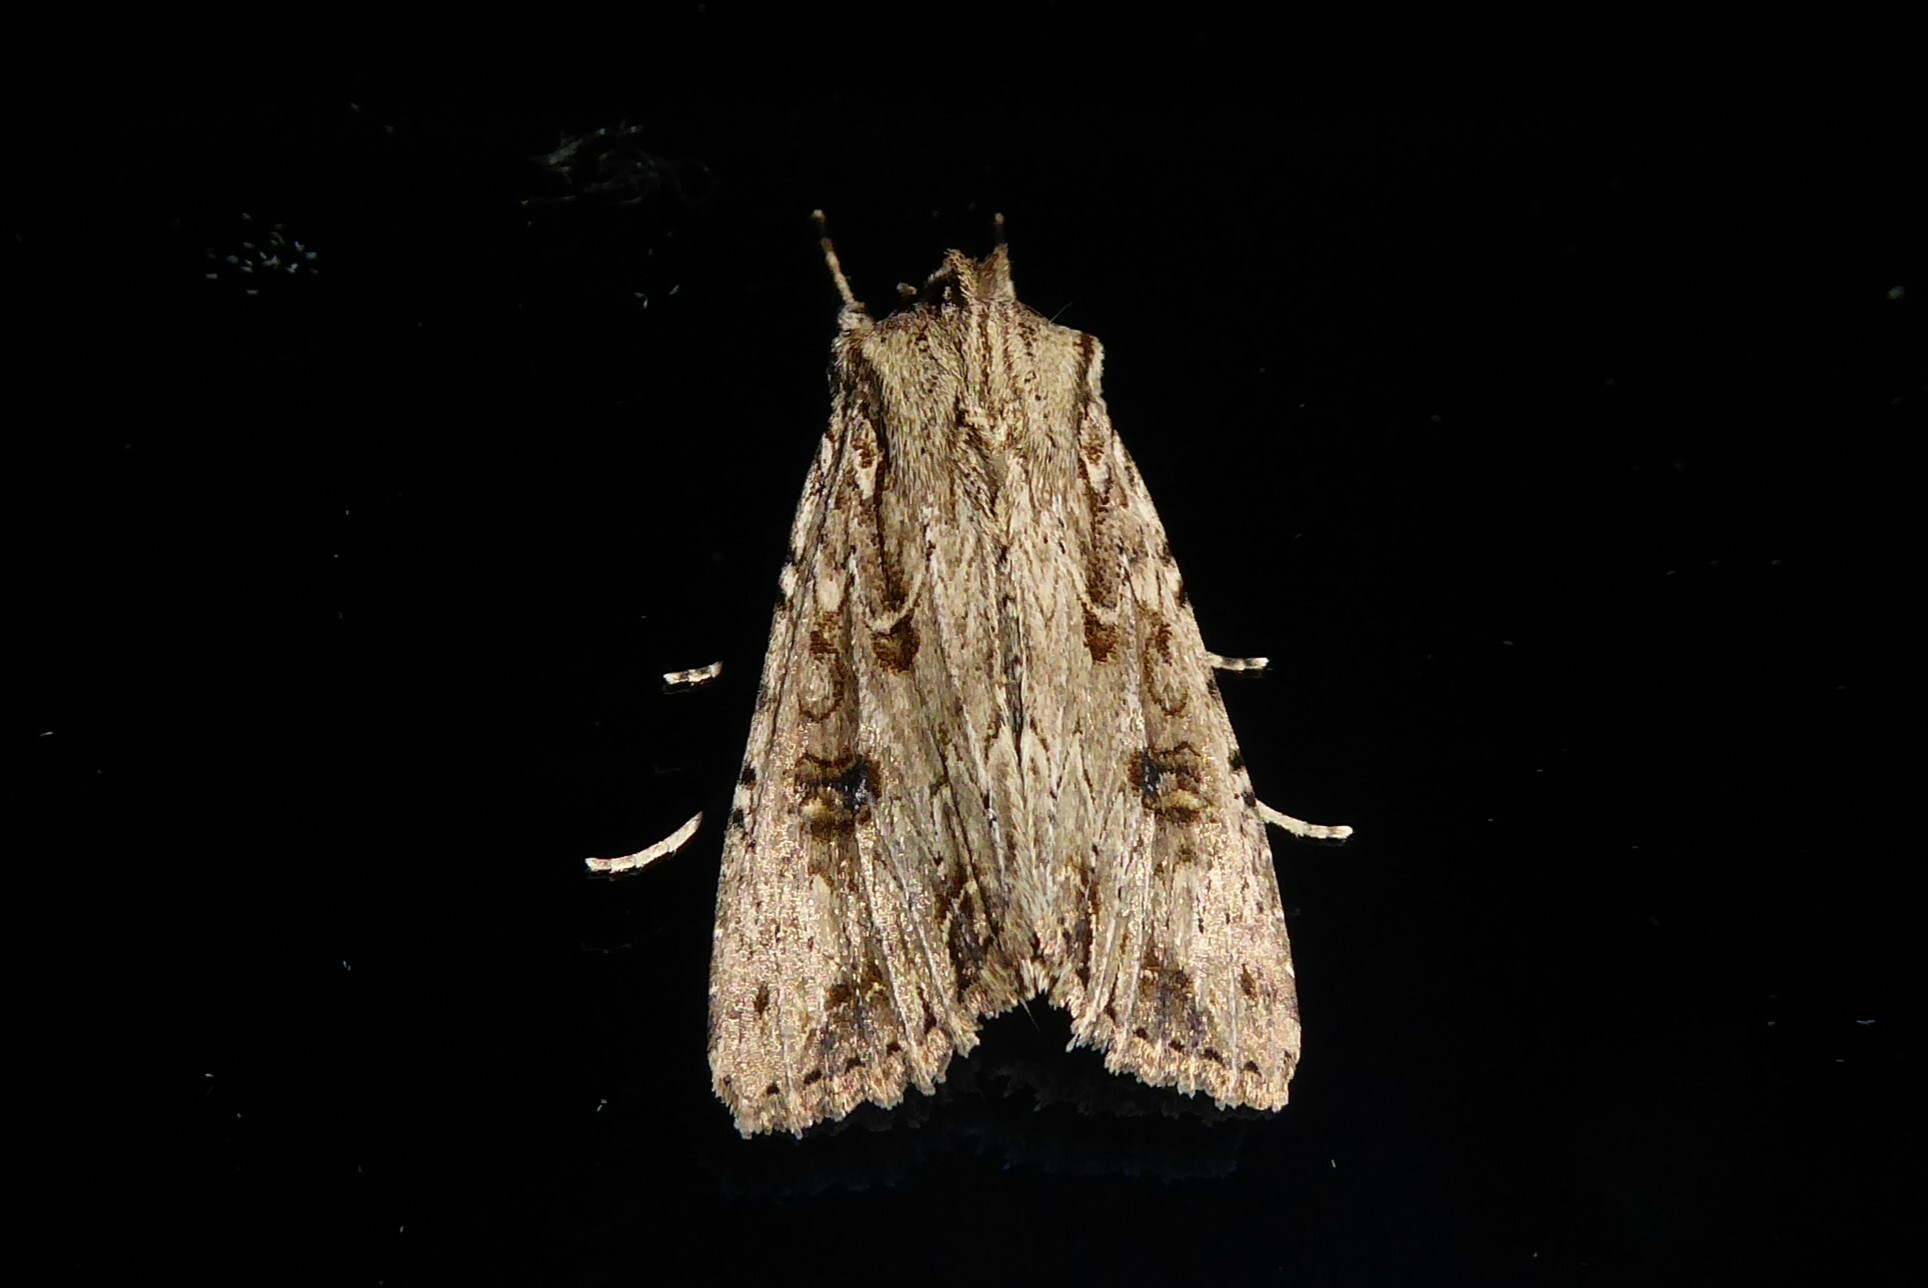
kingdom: Animalia
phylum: Arthropoda
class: Insecta
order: Lepidoptera
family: Noctuidae
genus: Ichneutica
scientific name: Ichneutica lignana
